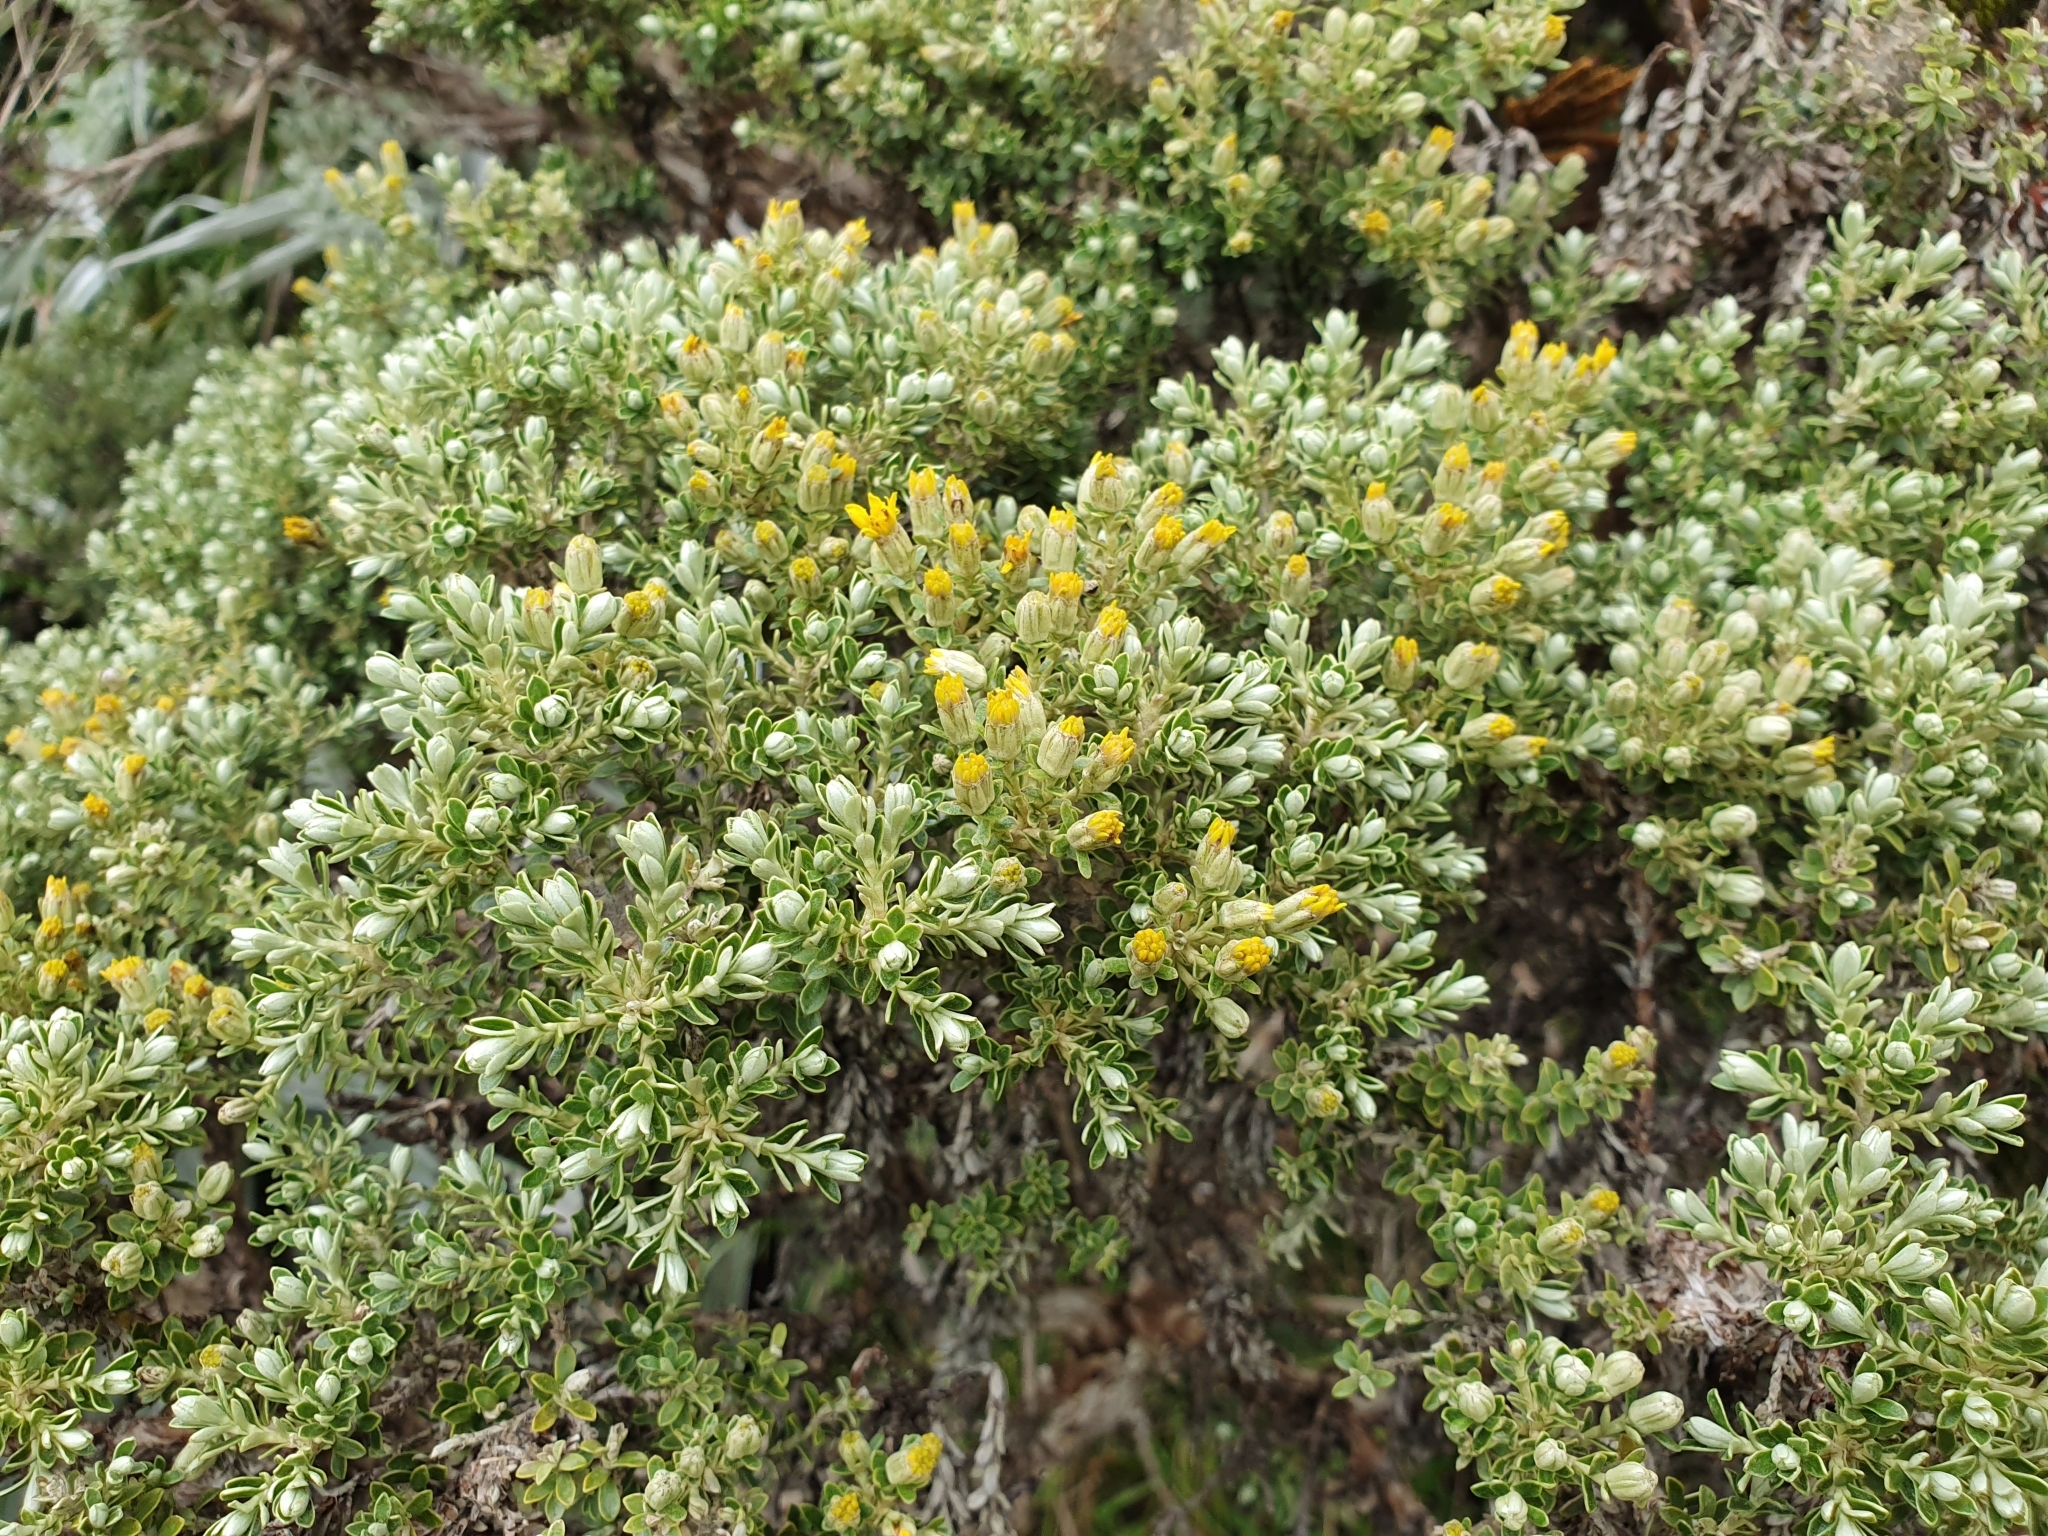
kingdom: Plantae
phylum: Tracheophyta
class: Magnoliopsida
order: Asterales
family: Asteraceae
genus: Brachyglottis
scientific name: Brachyglottis cassinioides
